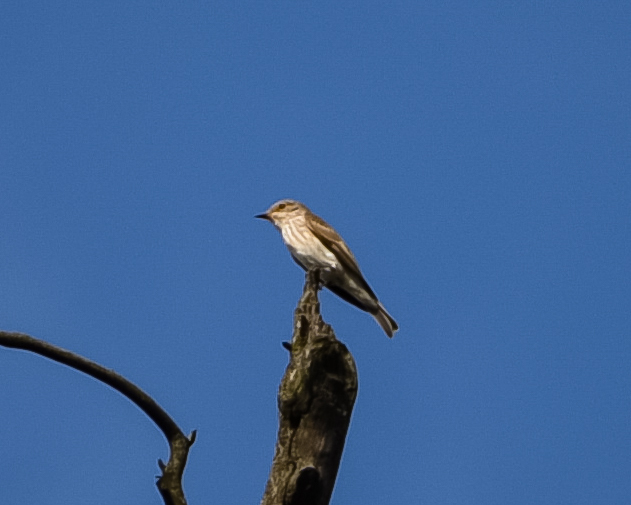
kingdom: Animalia
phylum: Chordata
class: Aves
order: Passeriformes
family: Muscicapidae
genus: Muscicapa
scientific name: Muscicapa striata
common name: Spotted flycatcher
